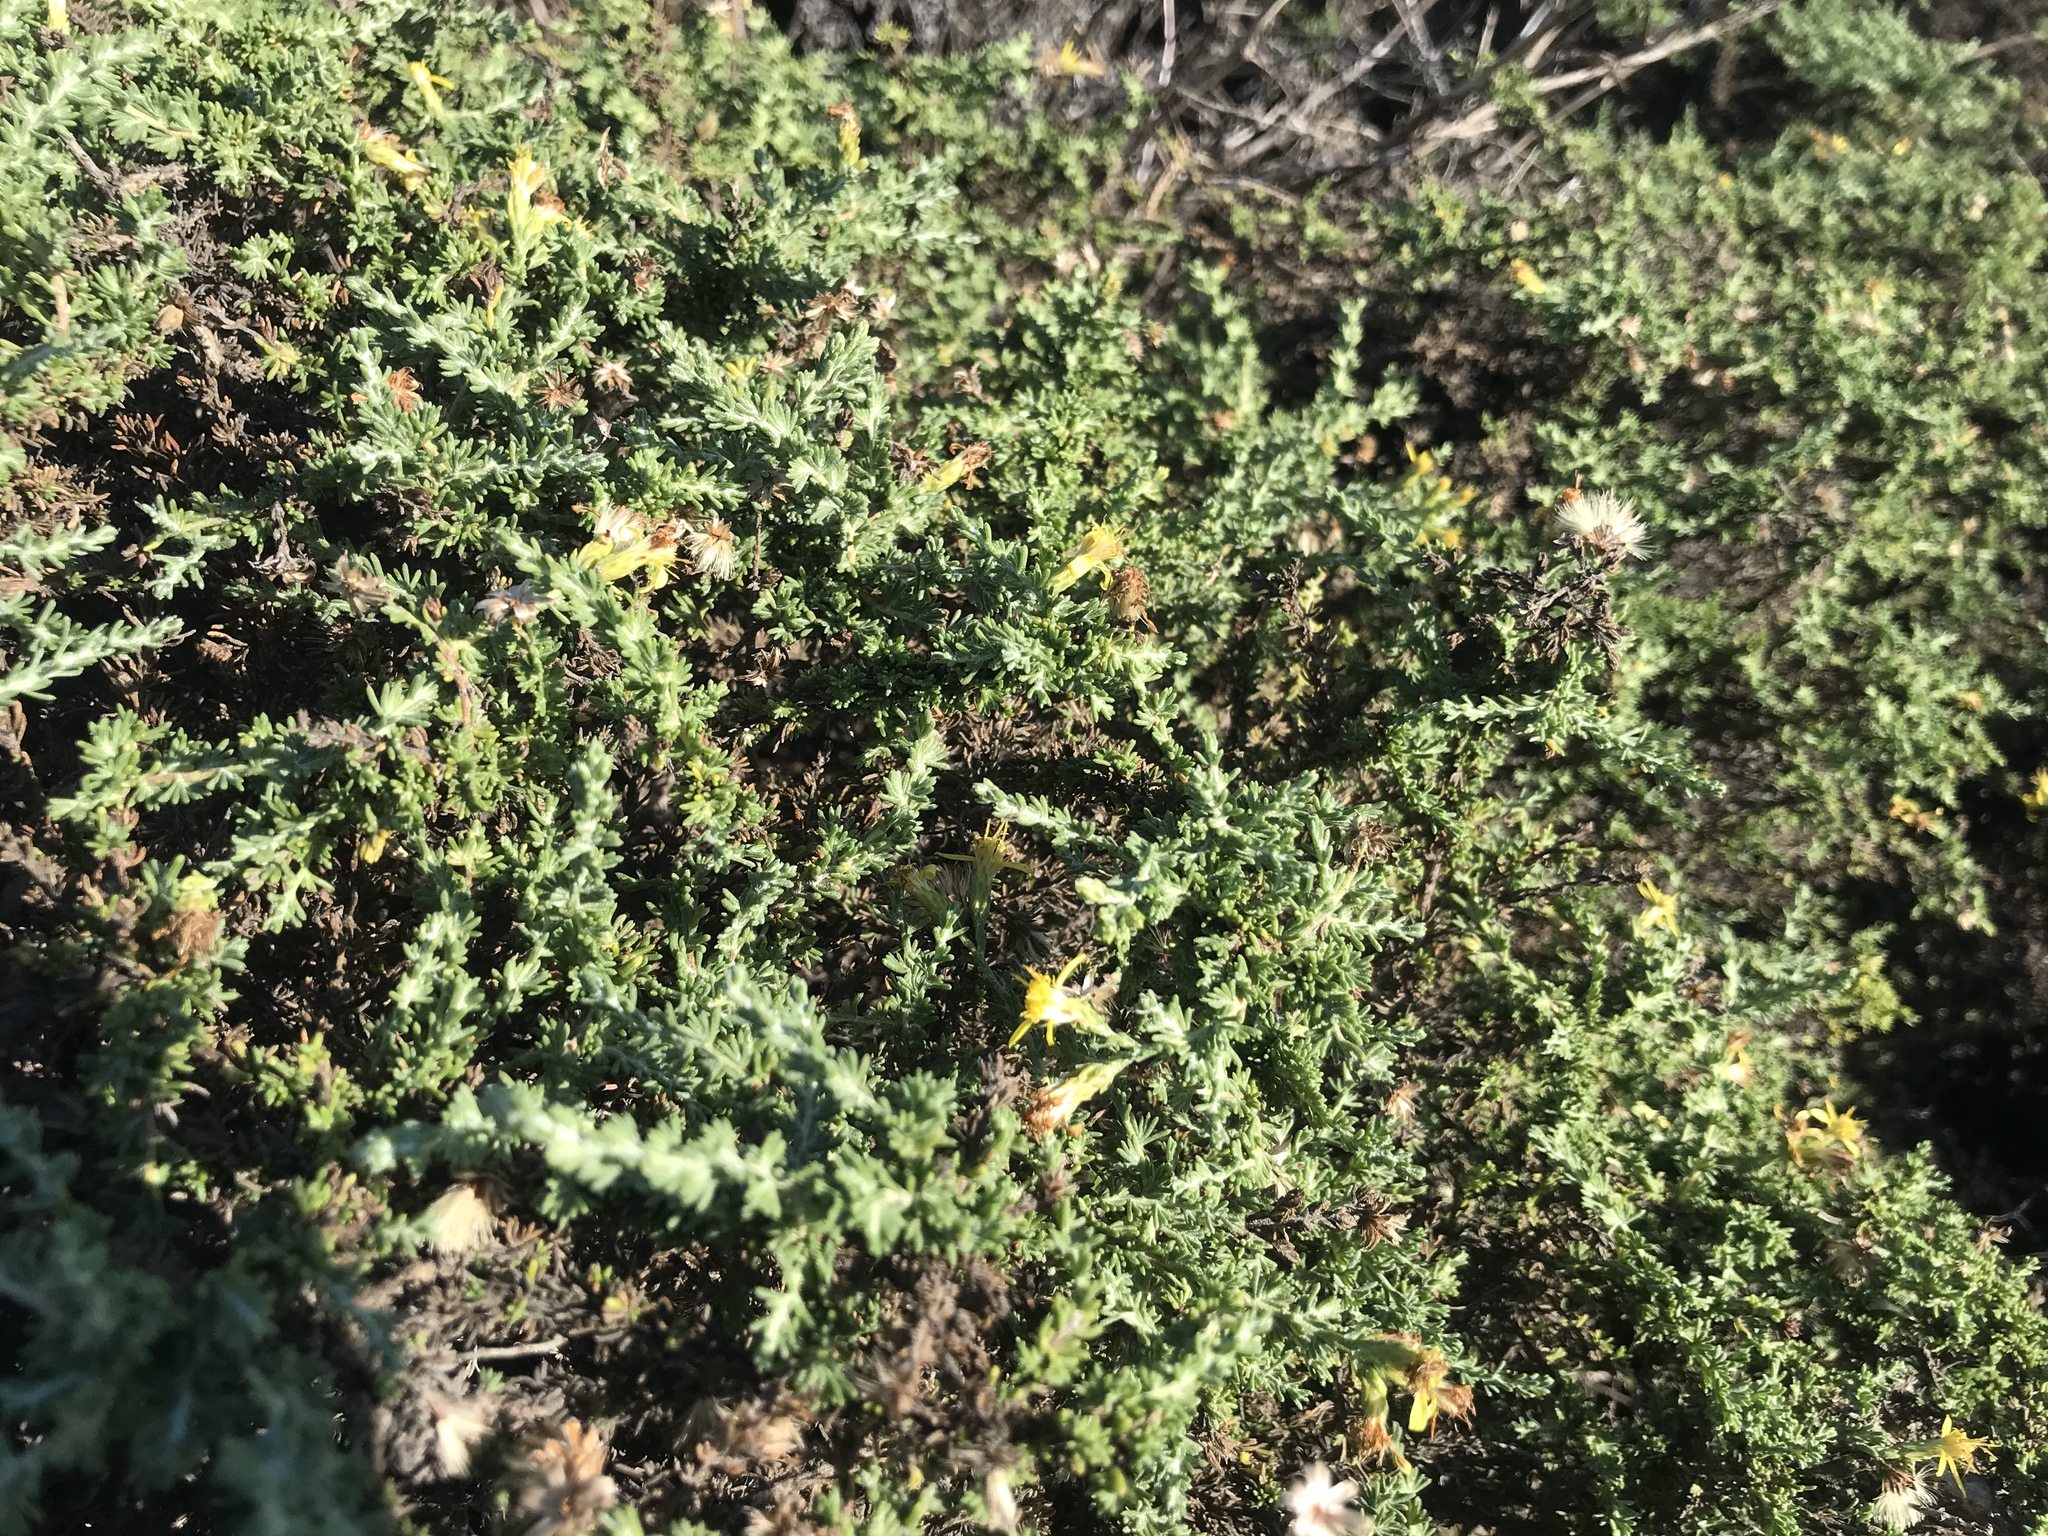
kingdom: Plantae
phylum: Tracheophyta
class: Magnoliopsida
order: Asterales
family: Asteraceae
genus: Ericameria
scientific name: Ericameria ericoides
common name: California goldenbush
